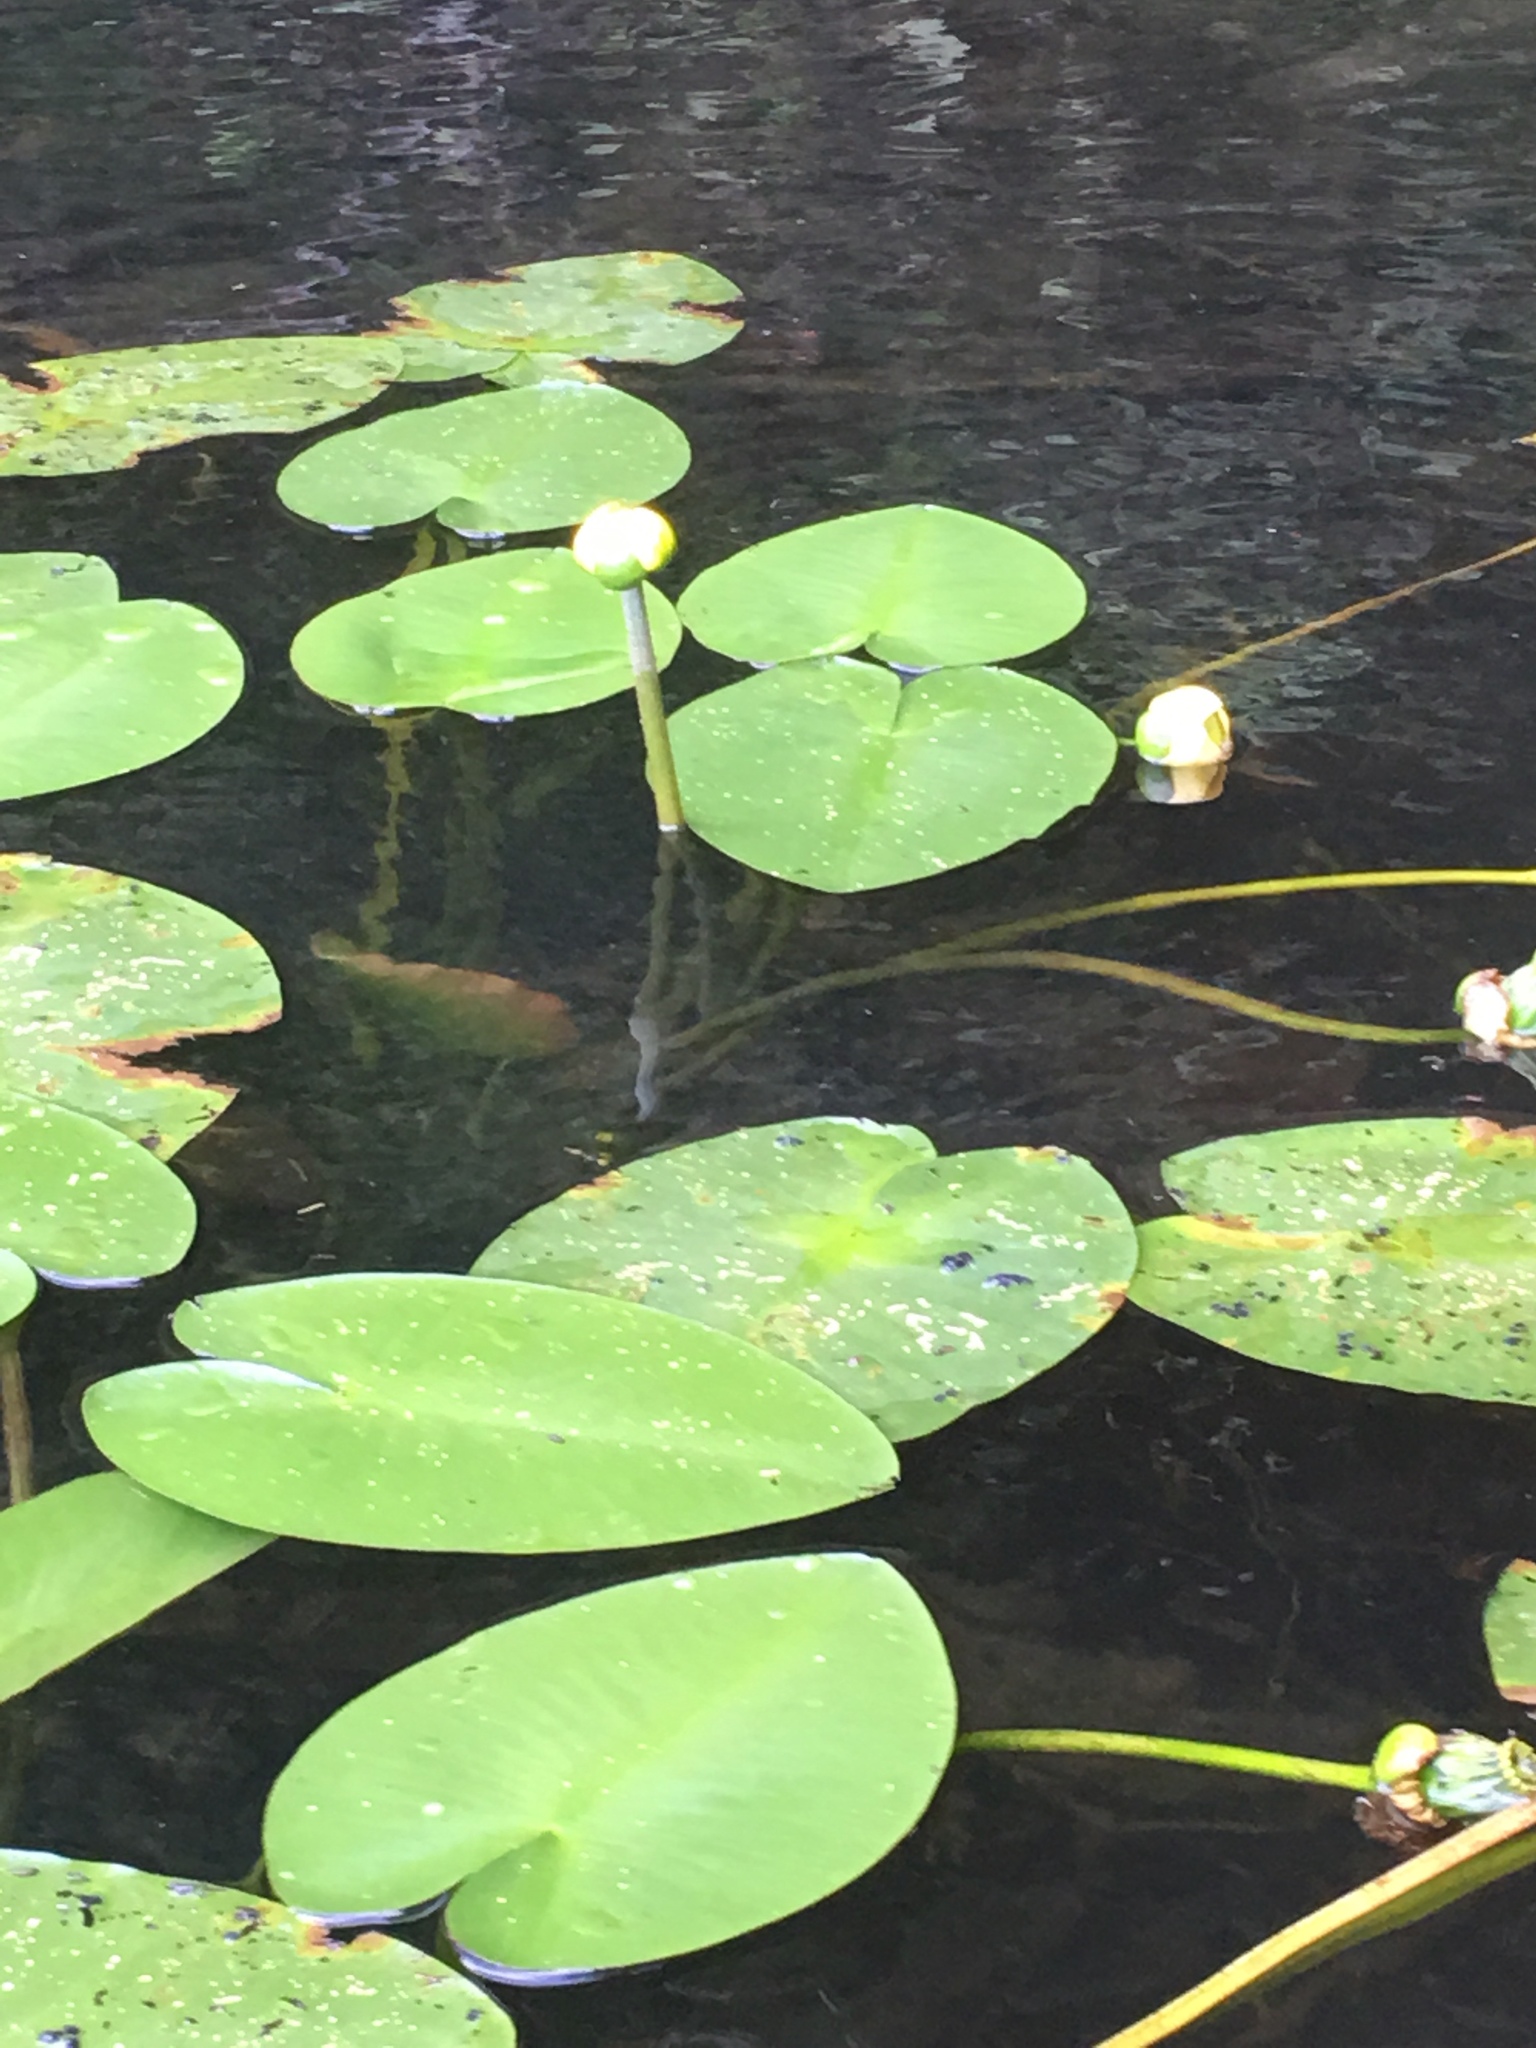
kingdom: Plantae
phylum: Tracheophyta
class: Magnoliopsida
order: Nymphaeales
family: Nymphaeaceae
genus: Nuphar
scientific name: Nuphar variegata
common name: Beaver-root
